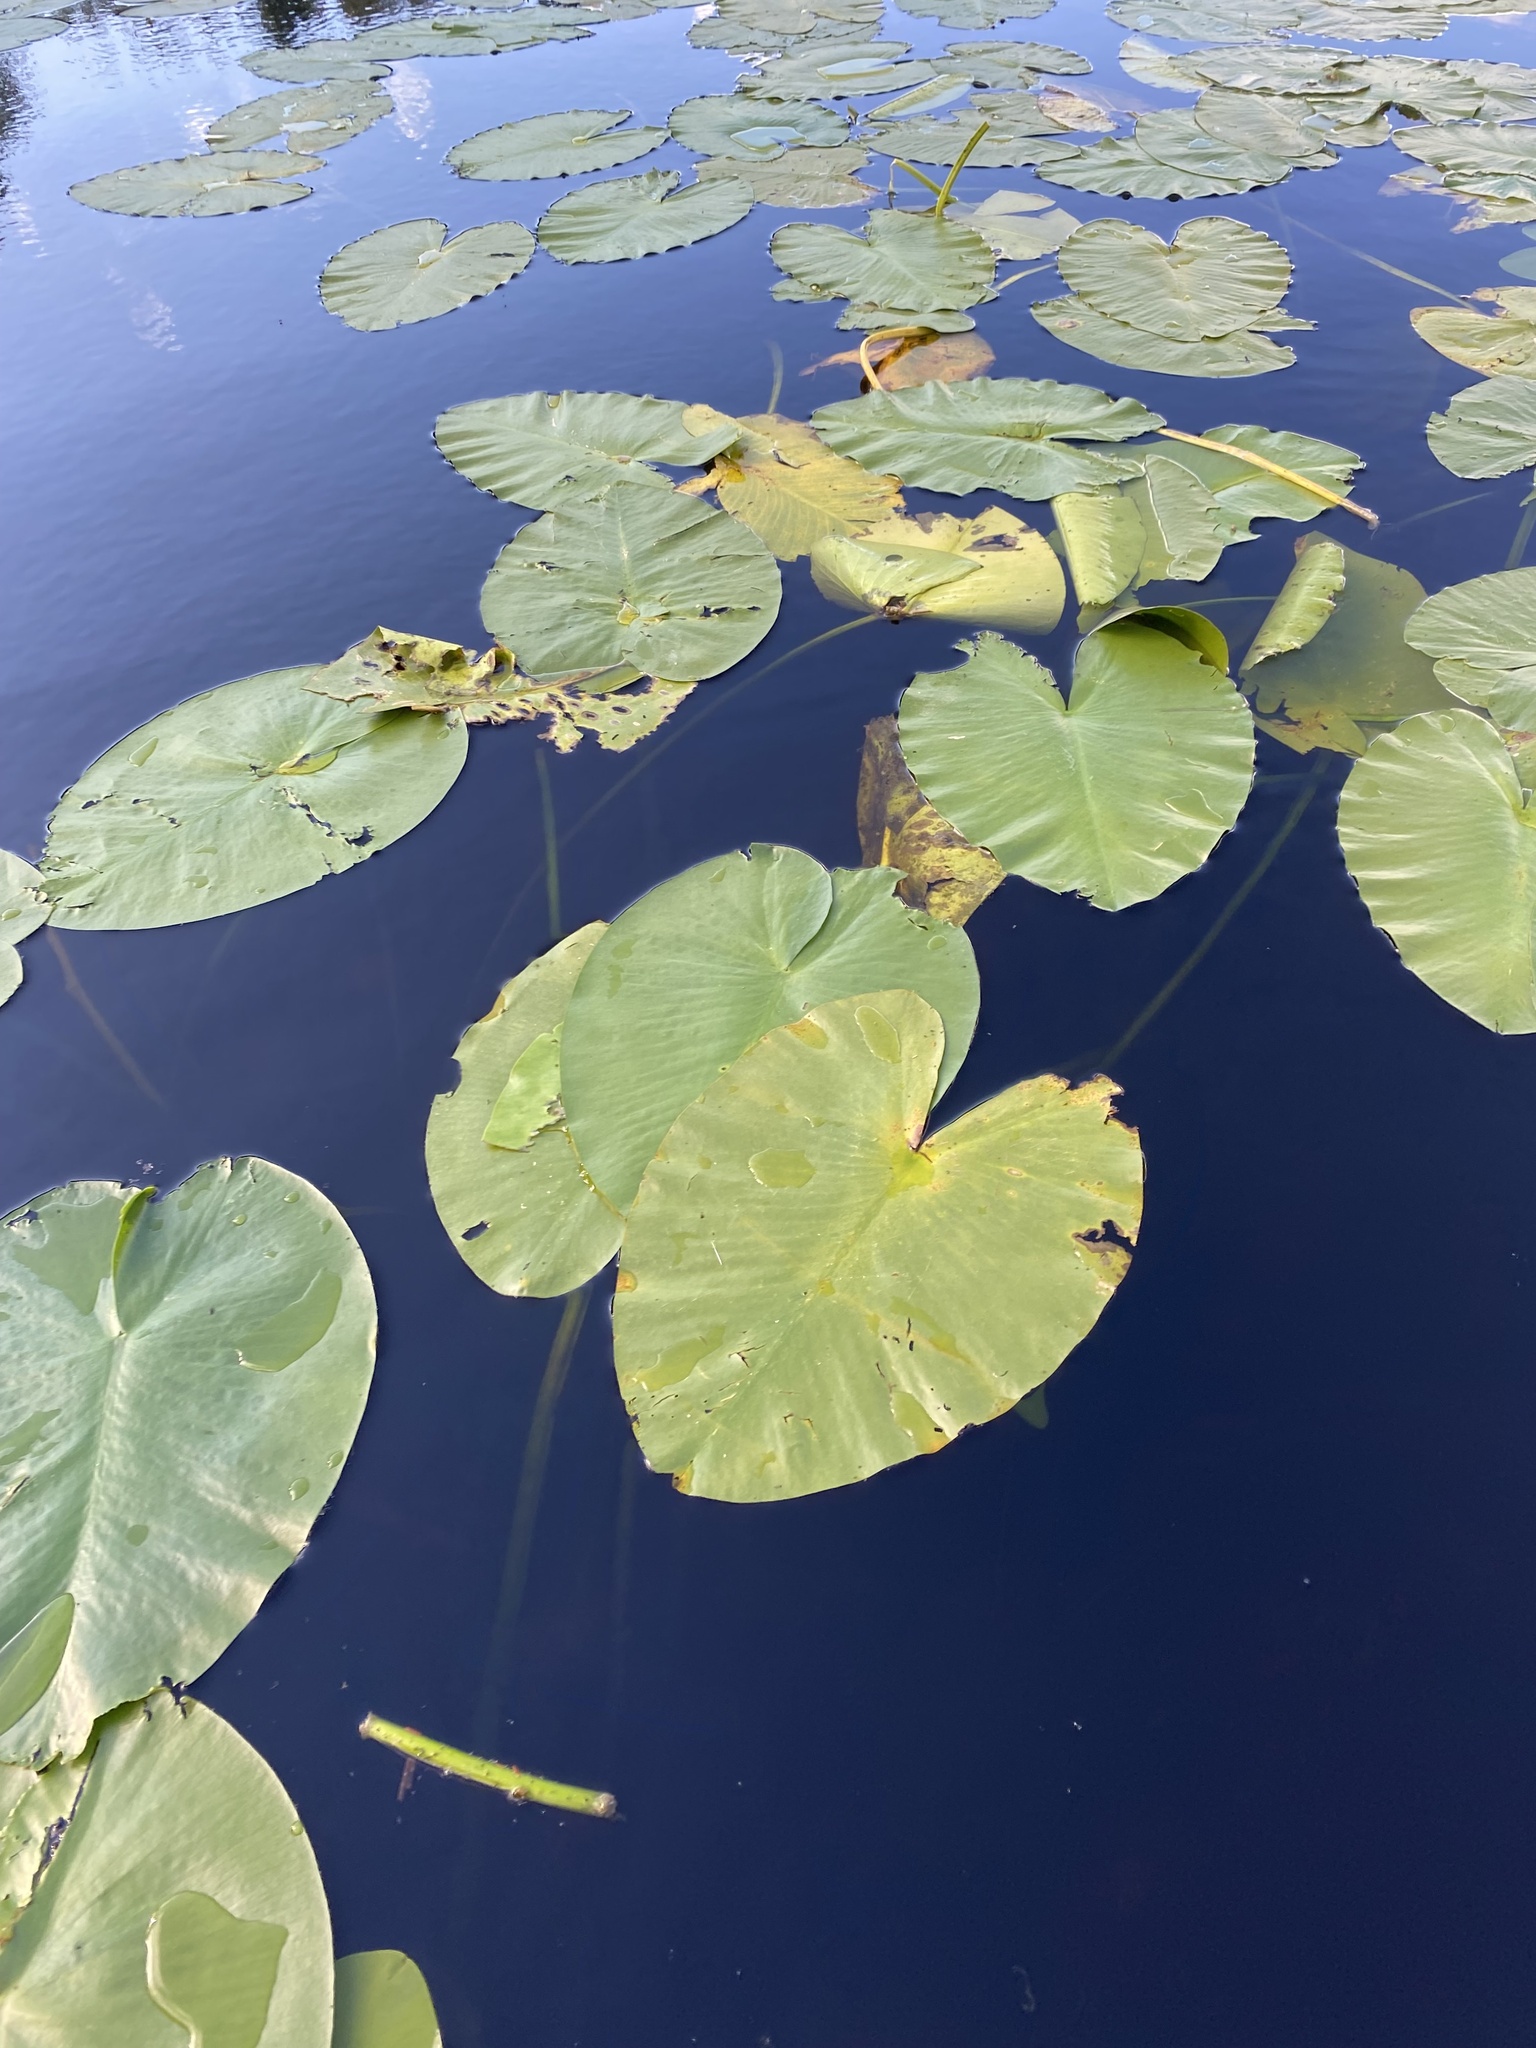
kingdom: Plantae
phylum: Tracheophyta
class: Magnoliopsida
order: Nymphaeales
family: Nymphaeaceae
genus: Nuphar
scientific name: Nuphar variegata
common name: Beaver-root
